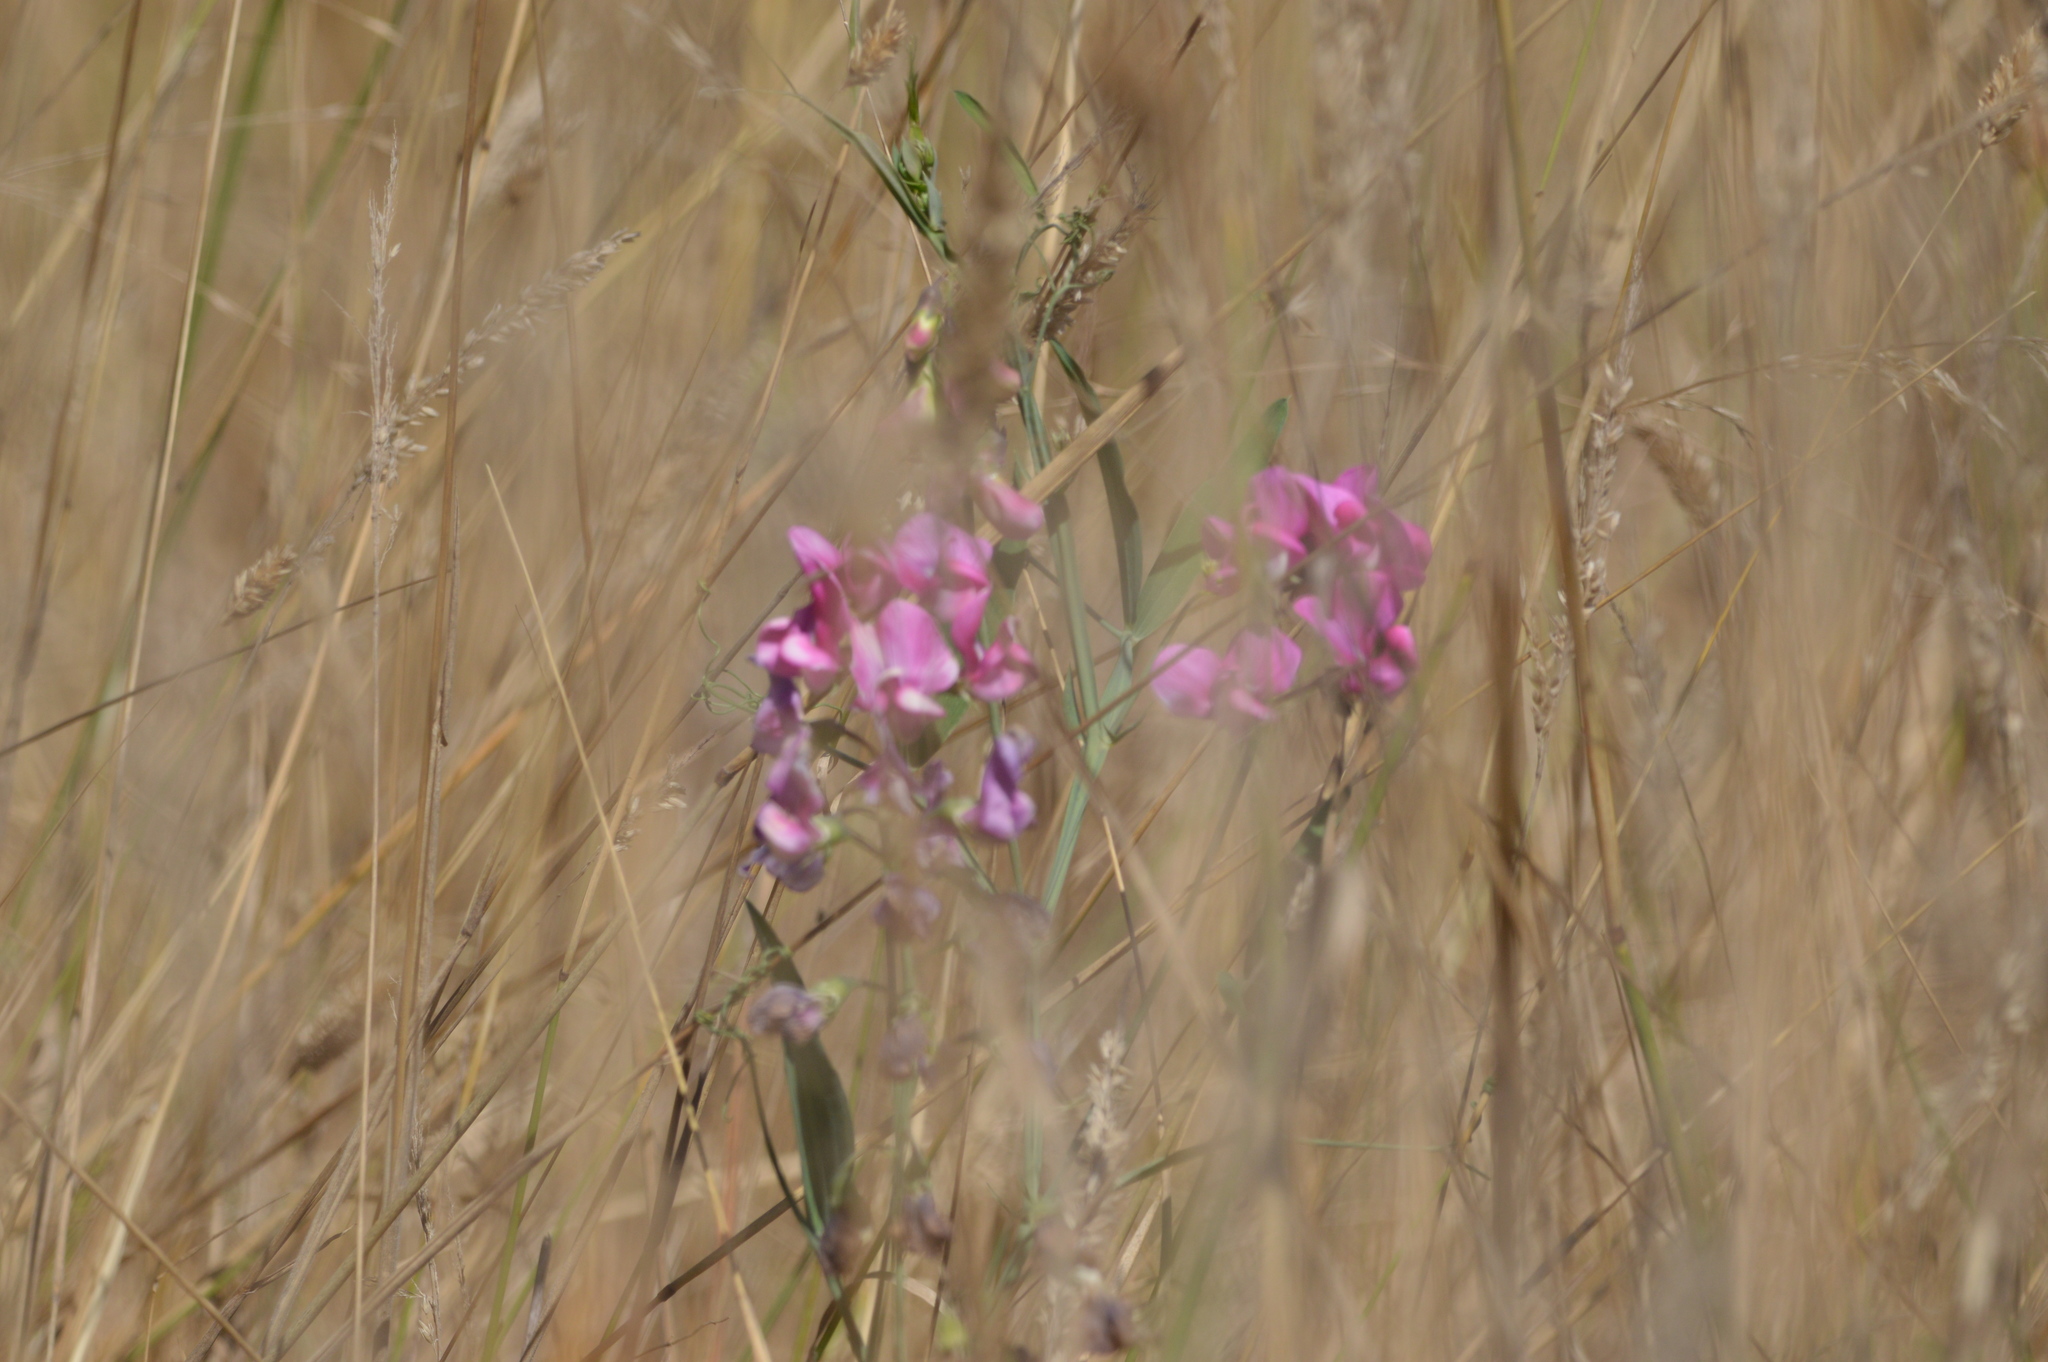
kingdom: Plantae
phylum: Tracheophyta
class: Magnoliopsida
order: Fabales
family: Fabaceae
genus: Lathyrus
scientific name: Lathyrus latifolius
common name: Perennial pea
